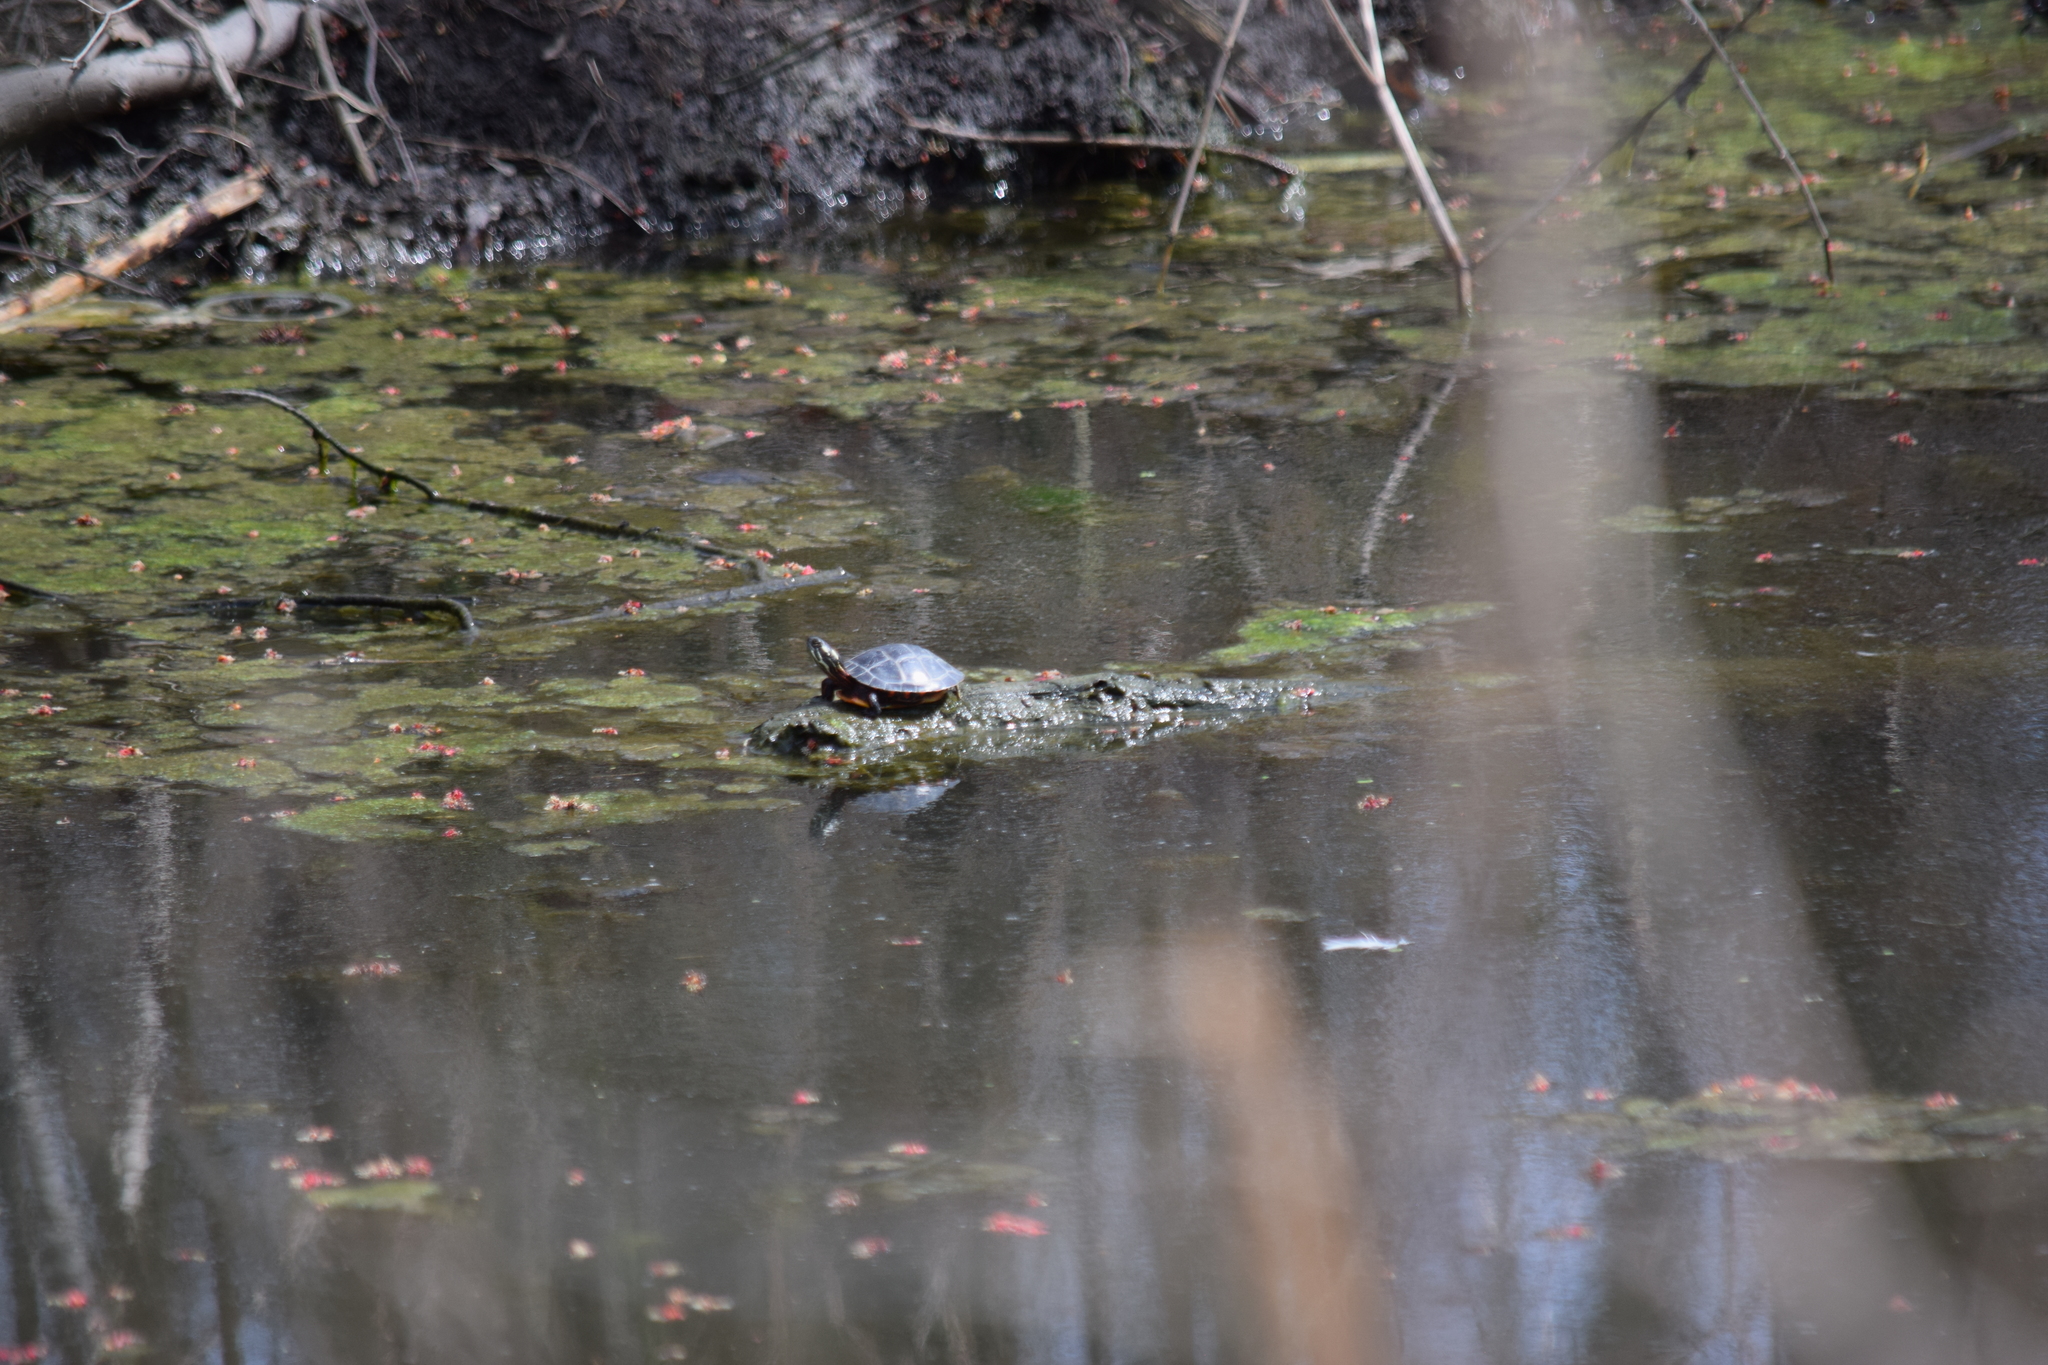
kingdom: Animalia
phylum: Chordata
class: Testudines
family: Emydidae
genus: Chrysemys
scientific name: Chrysemys picta
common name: Painted turtle
